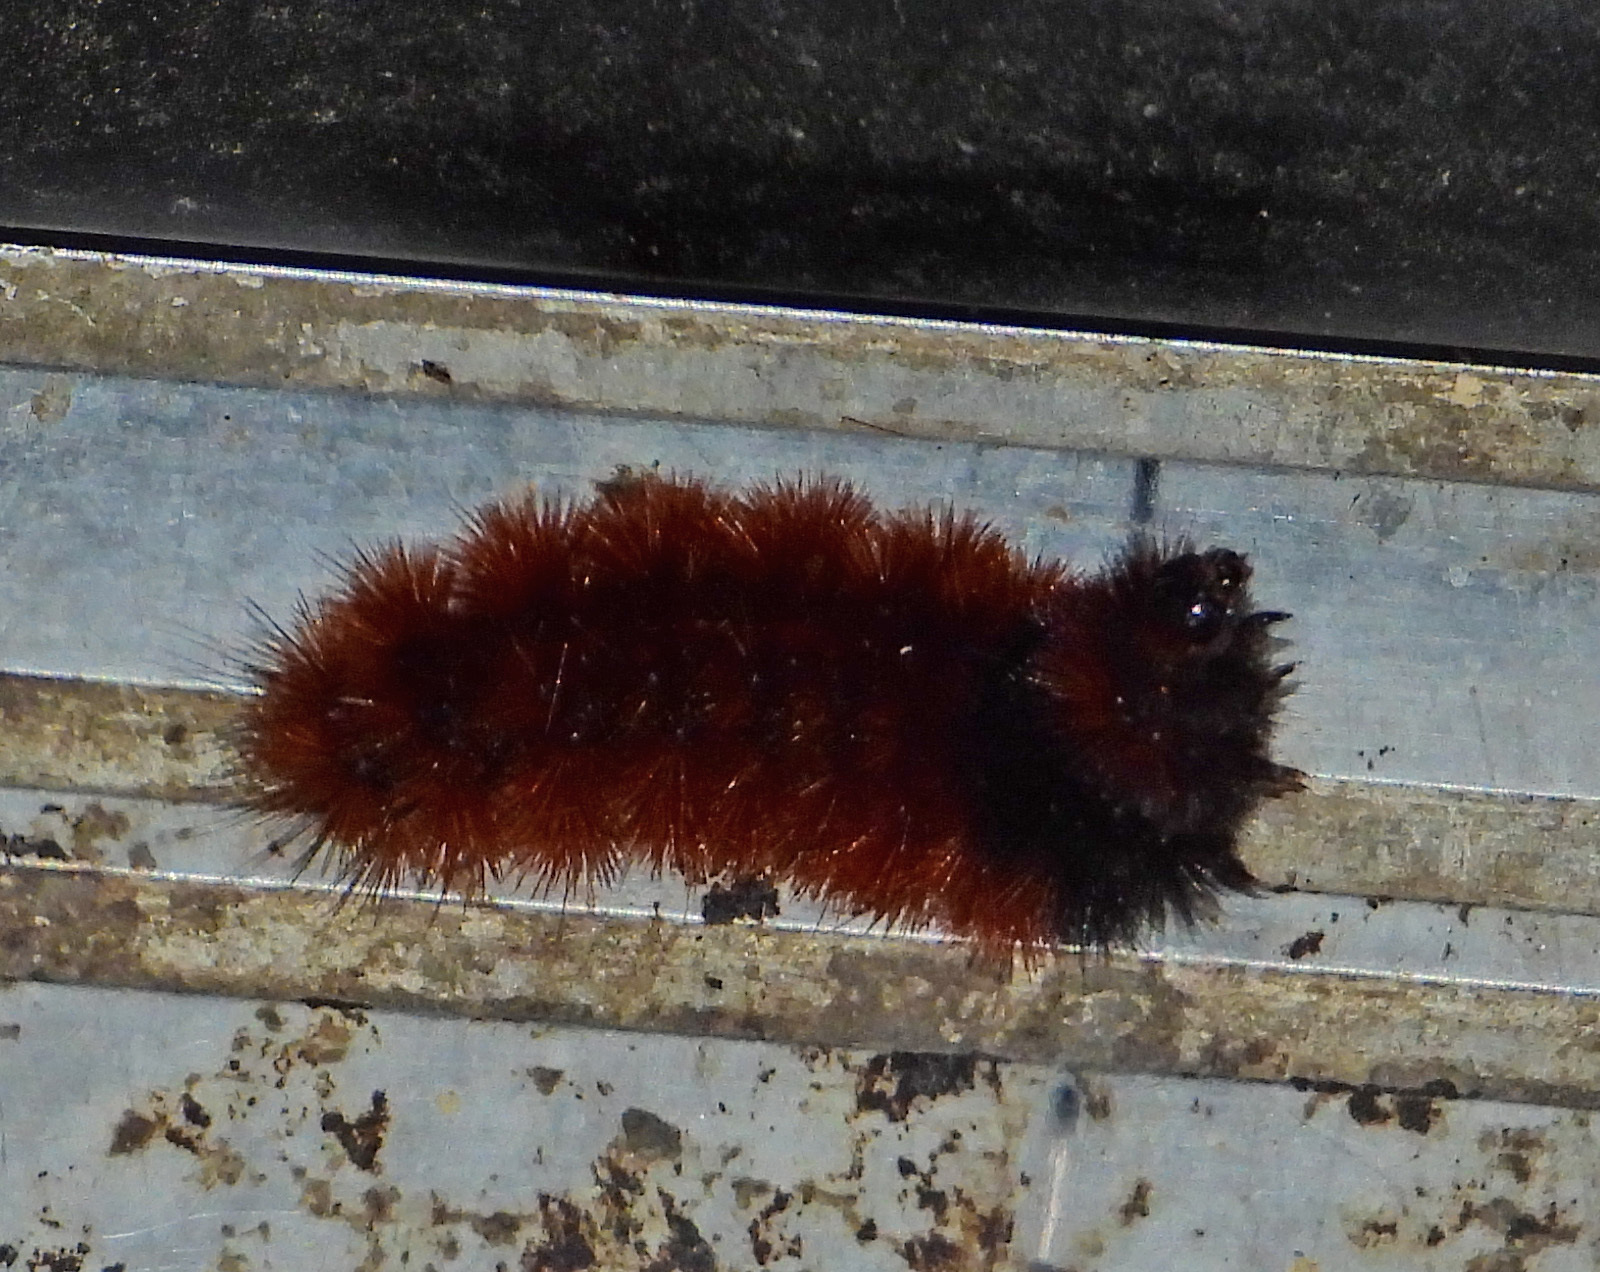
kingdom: Animalia
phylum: Arthropoda
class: Insecta
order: Lepidoptera
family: Erebidae
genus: Pyrrharctia
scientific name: Pyrrharctia isabella
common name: Isabella tiger moth
